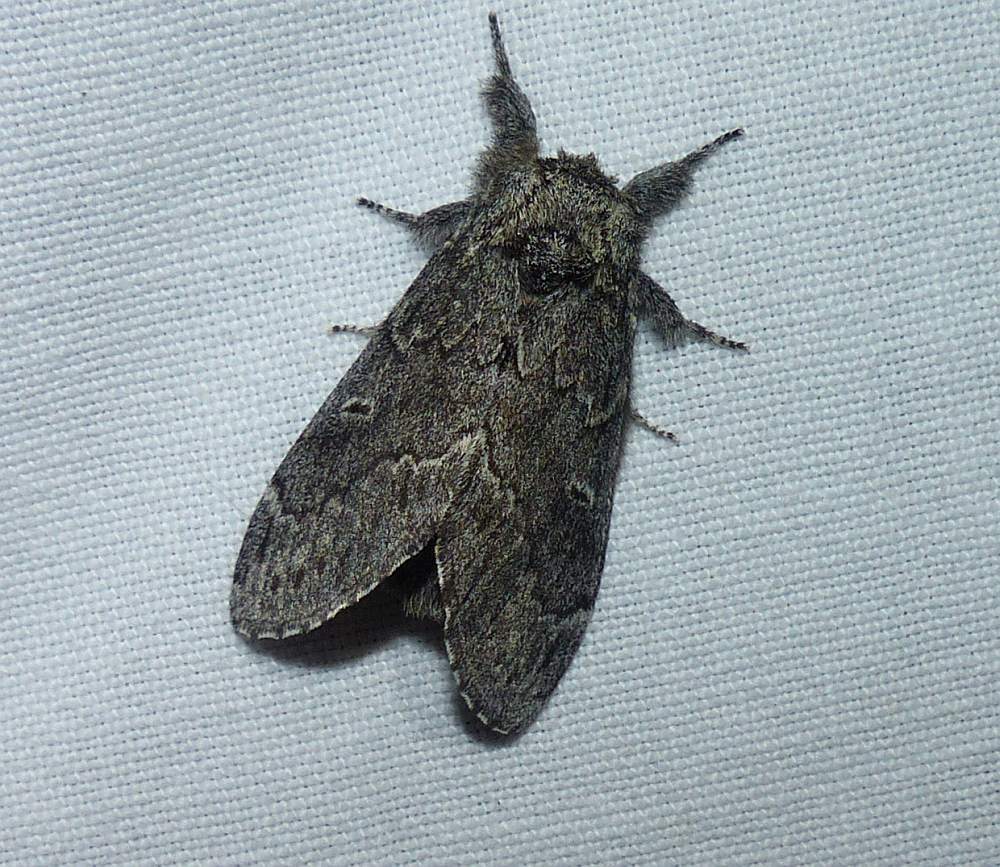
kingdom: Animalia
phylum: Arthropoda
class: Insecta
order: Lepidoptera
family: Notodontidae
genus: Notodonta
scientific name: Notodonta torva
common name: Large dark prominent
